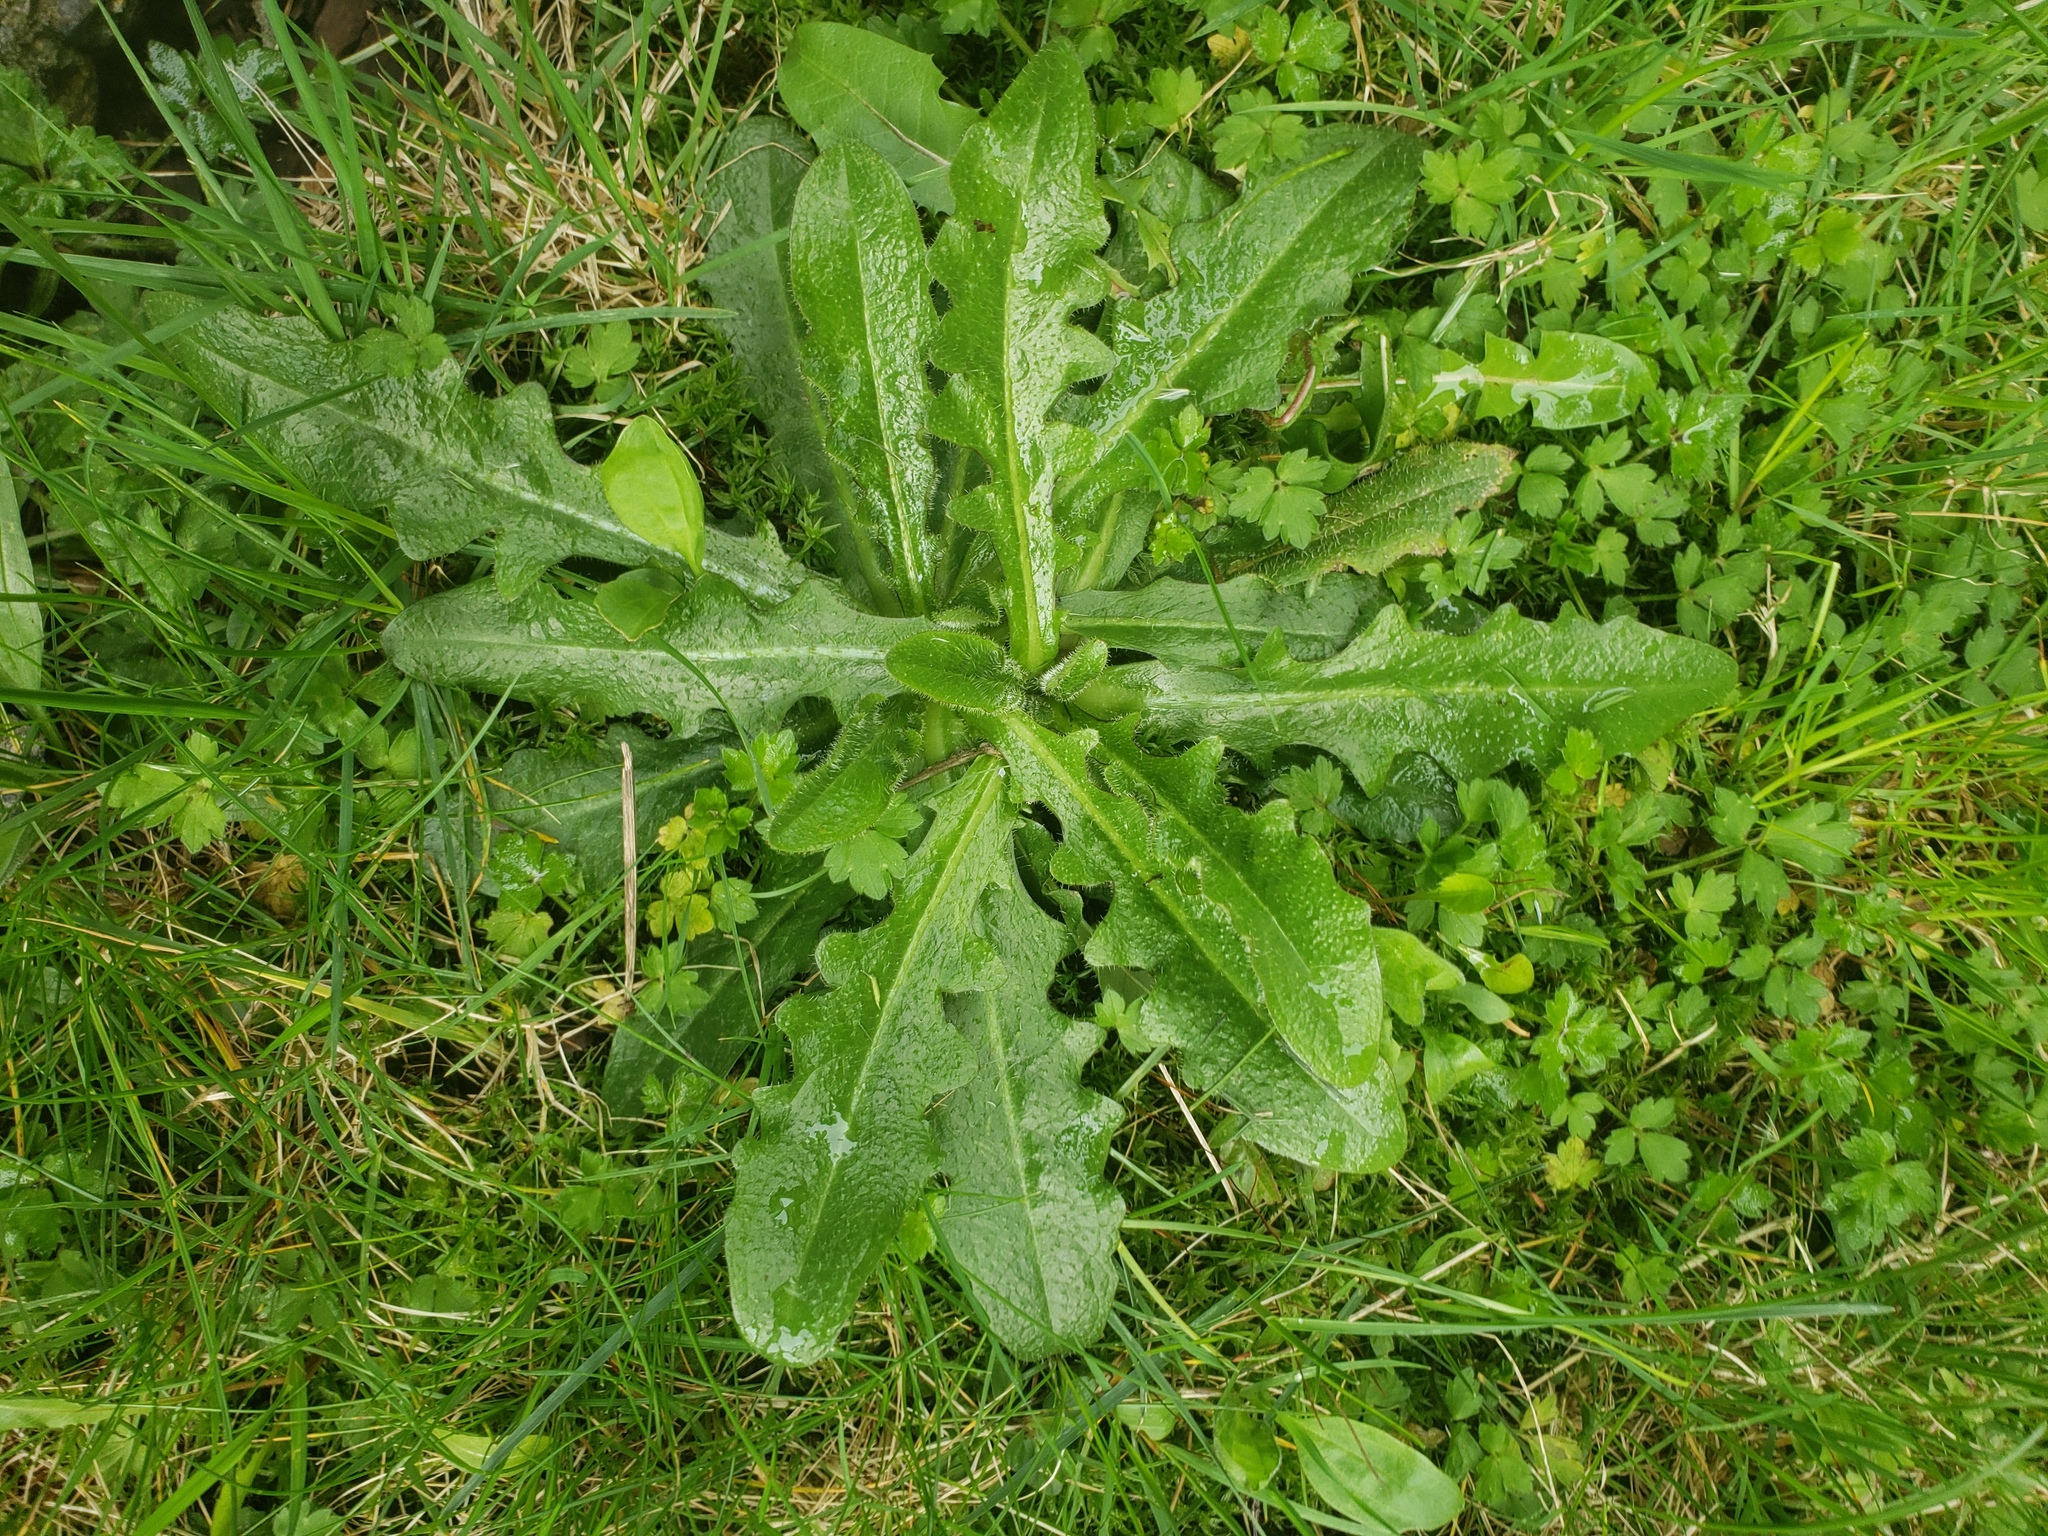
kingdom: Plantae
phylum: Tracheophyta
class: Magnoliopsida
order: Asterales
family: Asteraceae
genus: Hypochaeris
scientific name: Hypochaeris radicata
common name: Flatweed
